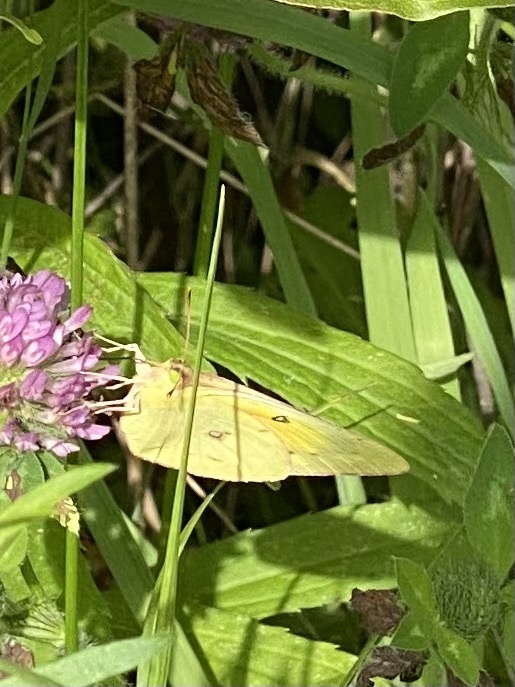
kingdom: Animalia
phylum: Arthropoda
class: Insecta
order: Lepidoptera
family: Pieridae
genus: Colias
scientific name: Colias eurytheme
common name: Alfalfa butterfly
